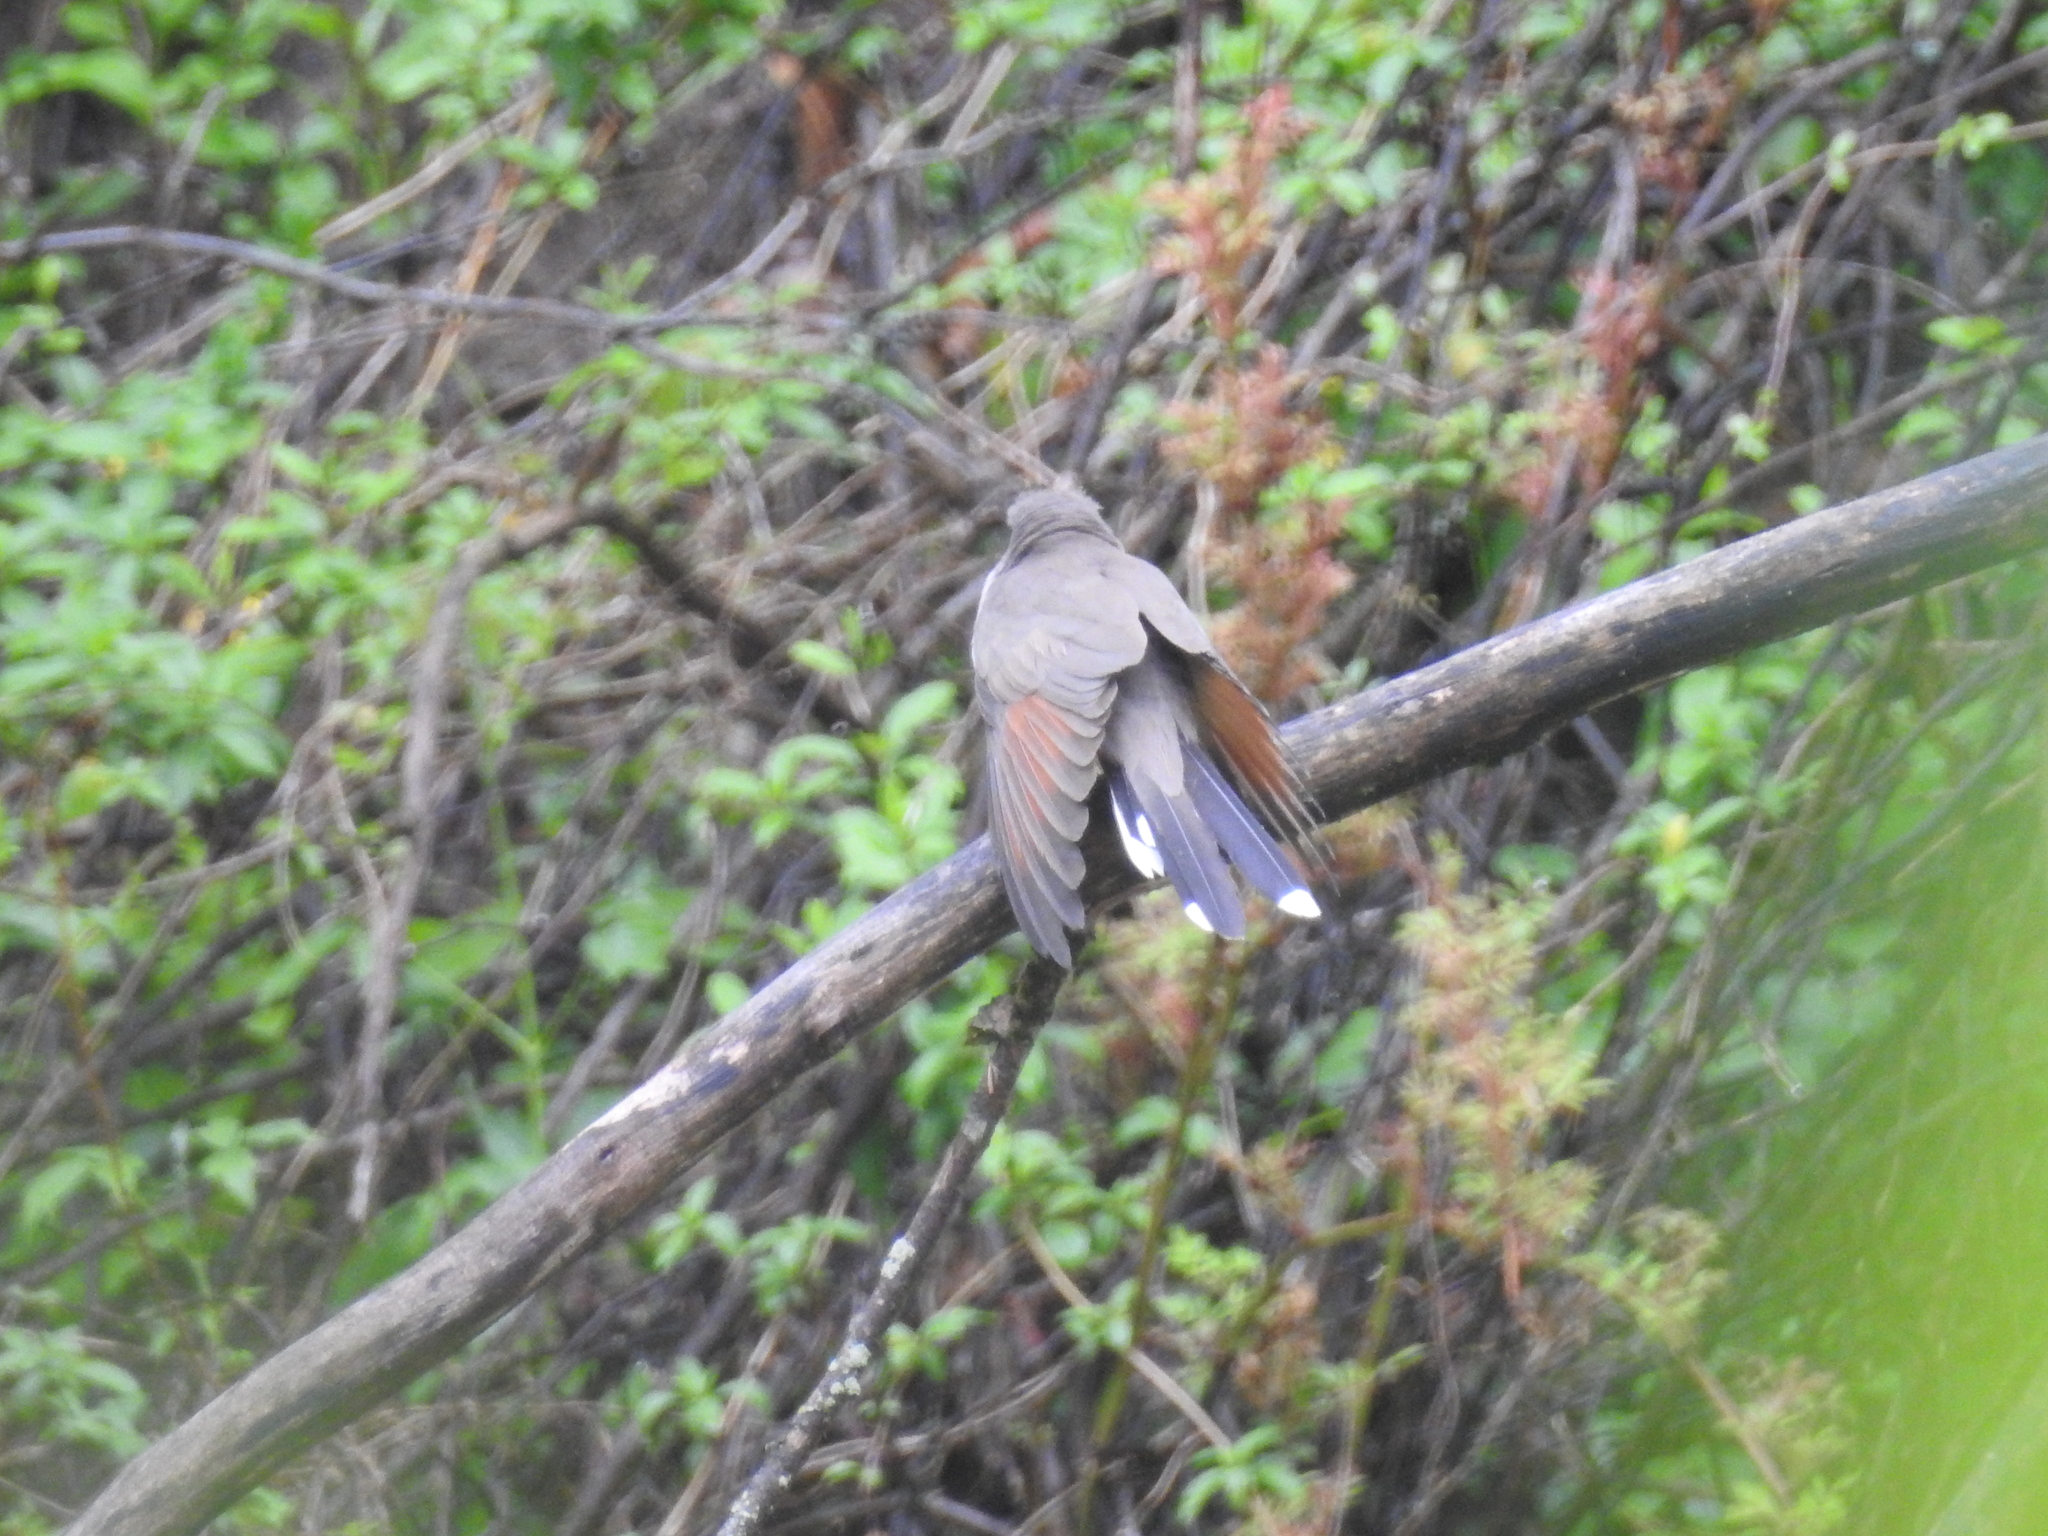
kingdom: Animalia
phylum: Chordata
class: Aves
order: Cuculiformes
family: Cuculidae
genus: Coccyzus
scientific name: Coccyzus americanus
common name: Yellow-billed cuckoo
